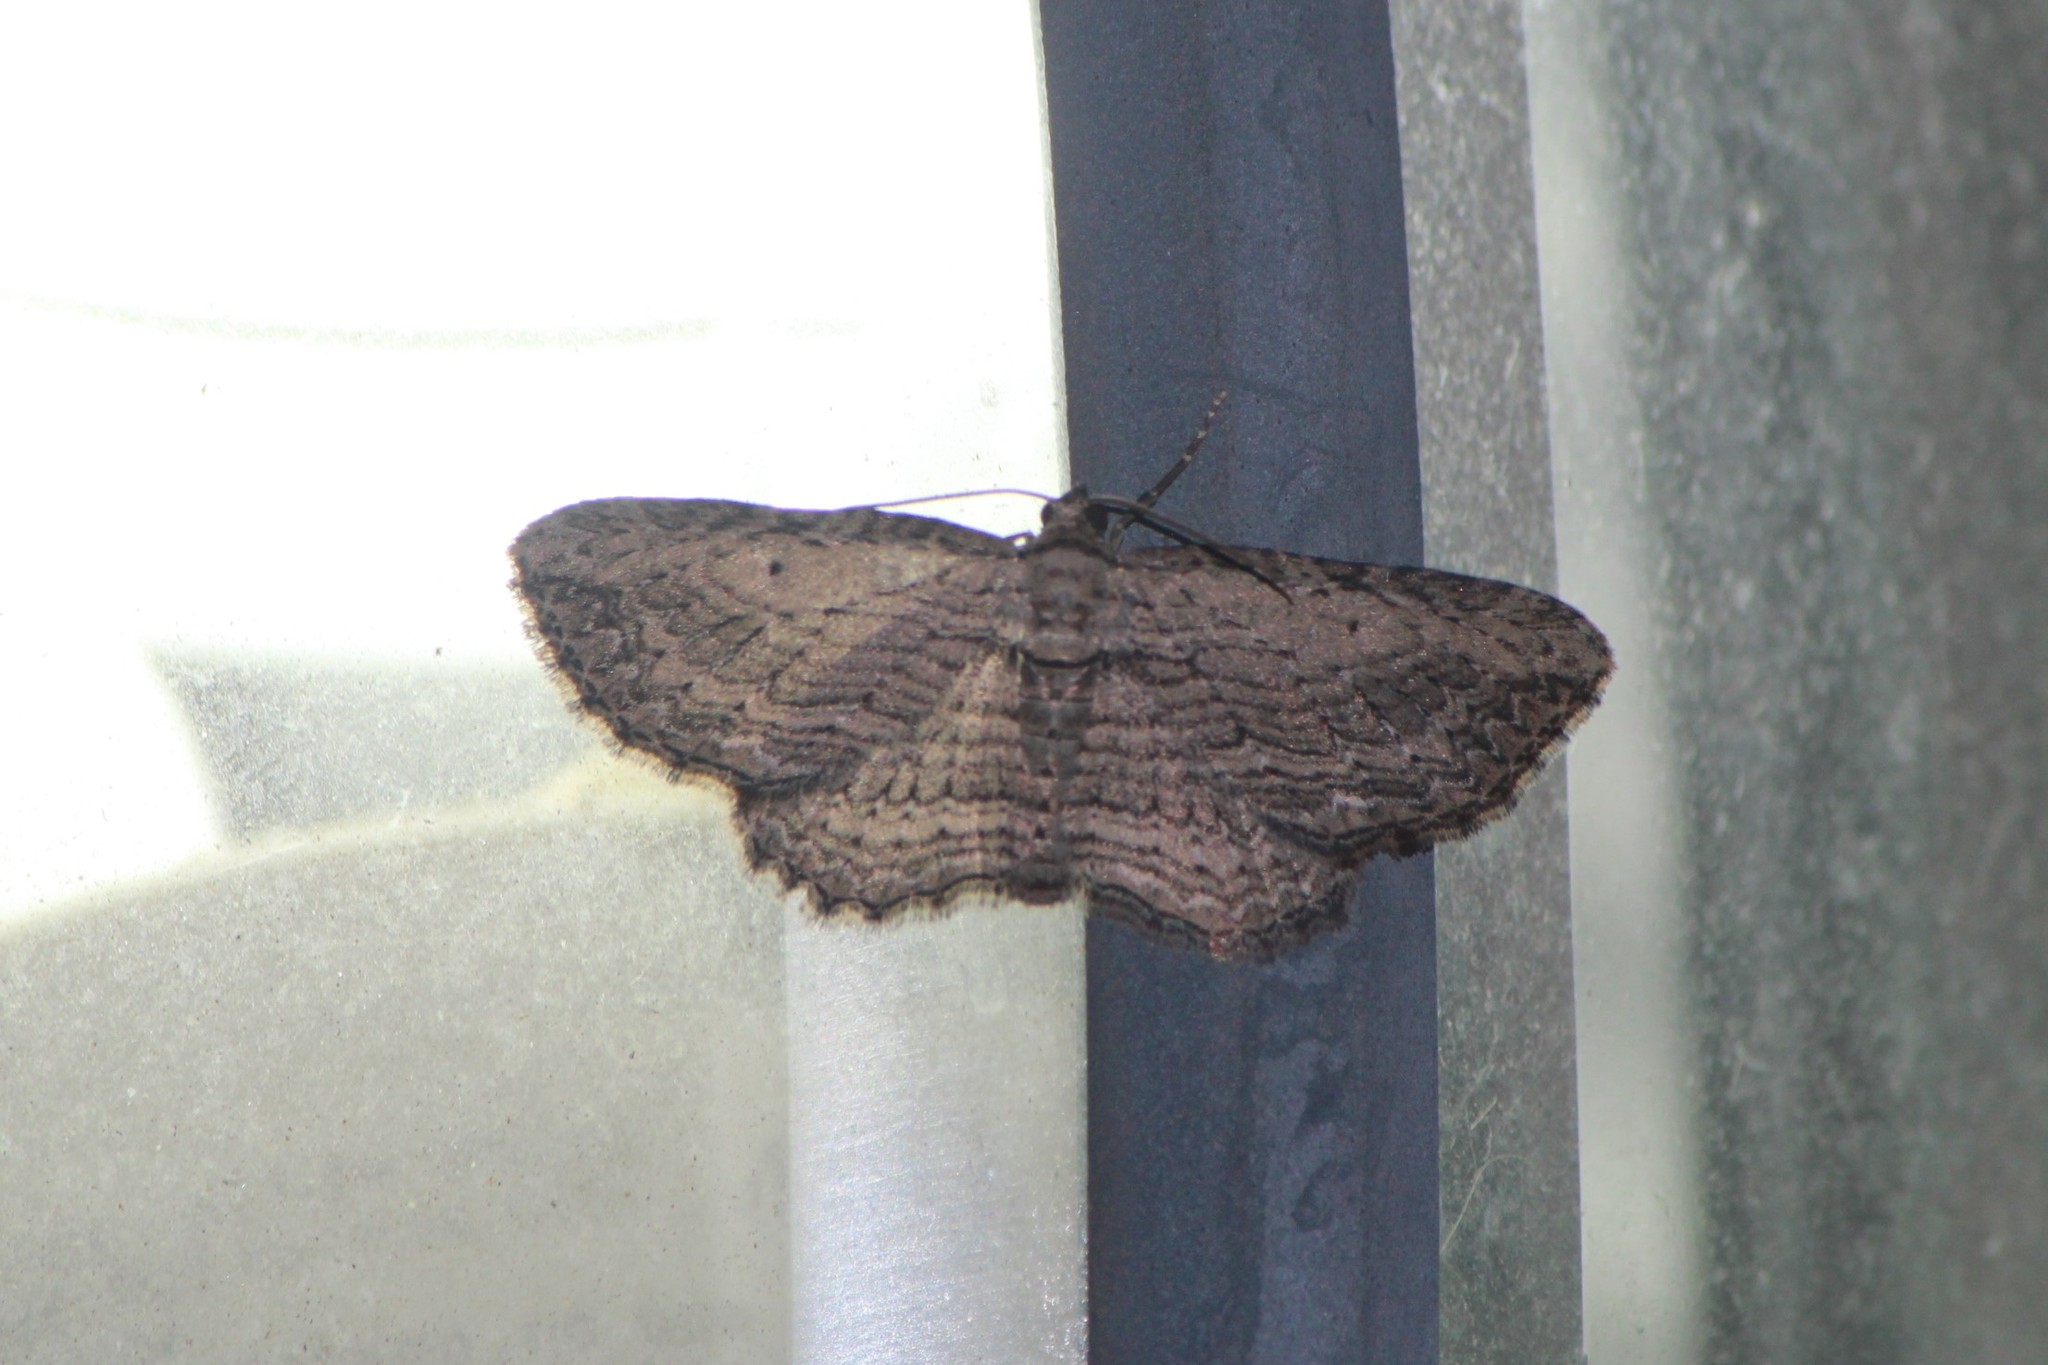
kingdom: Animalia
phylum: Arthropoda
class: Insecta
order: Lepidoptera
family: Geometridae
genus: Horisme
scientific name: Horisme intestinata
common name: Brown bark carpet
